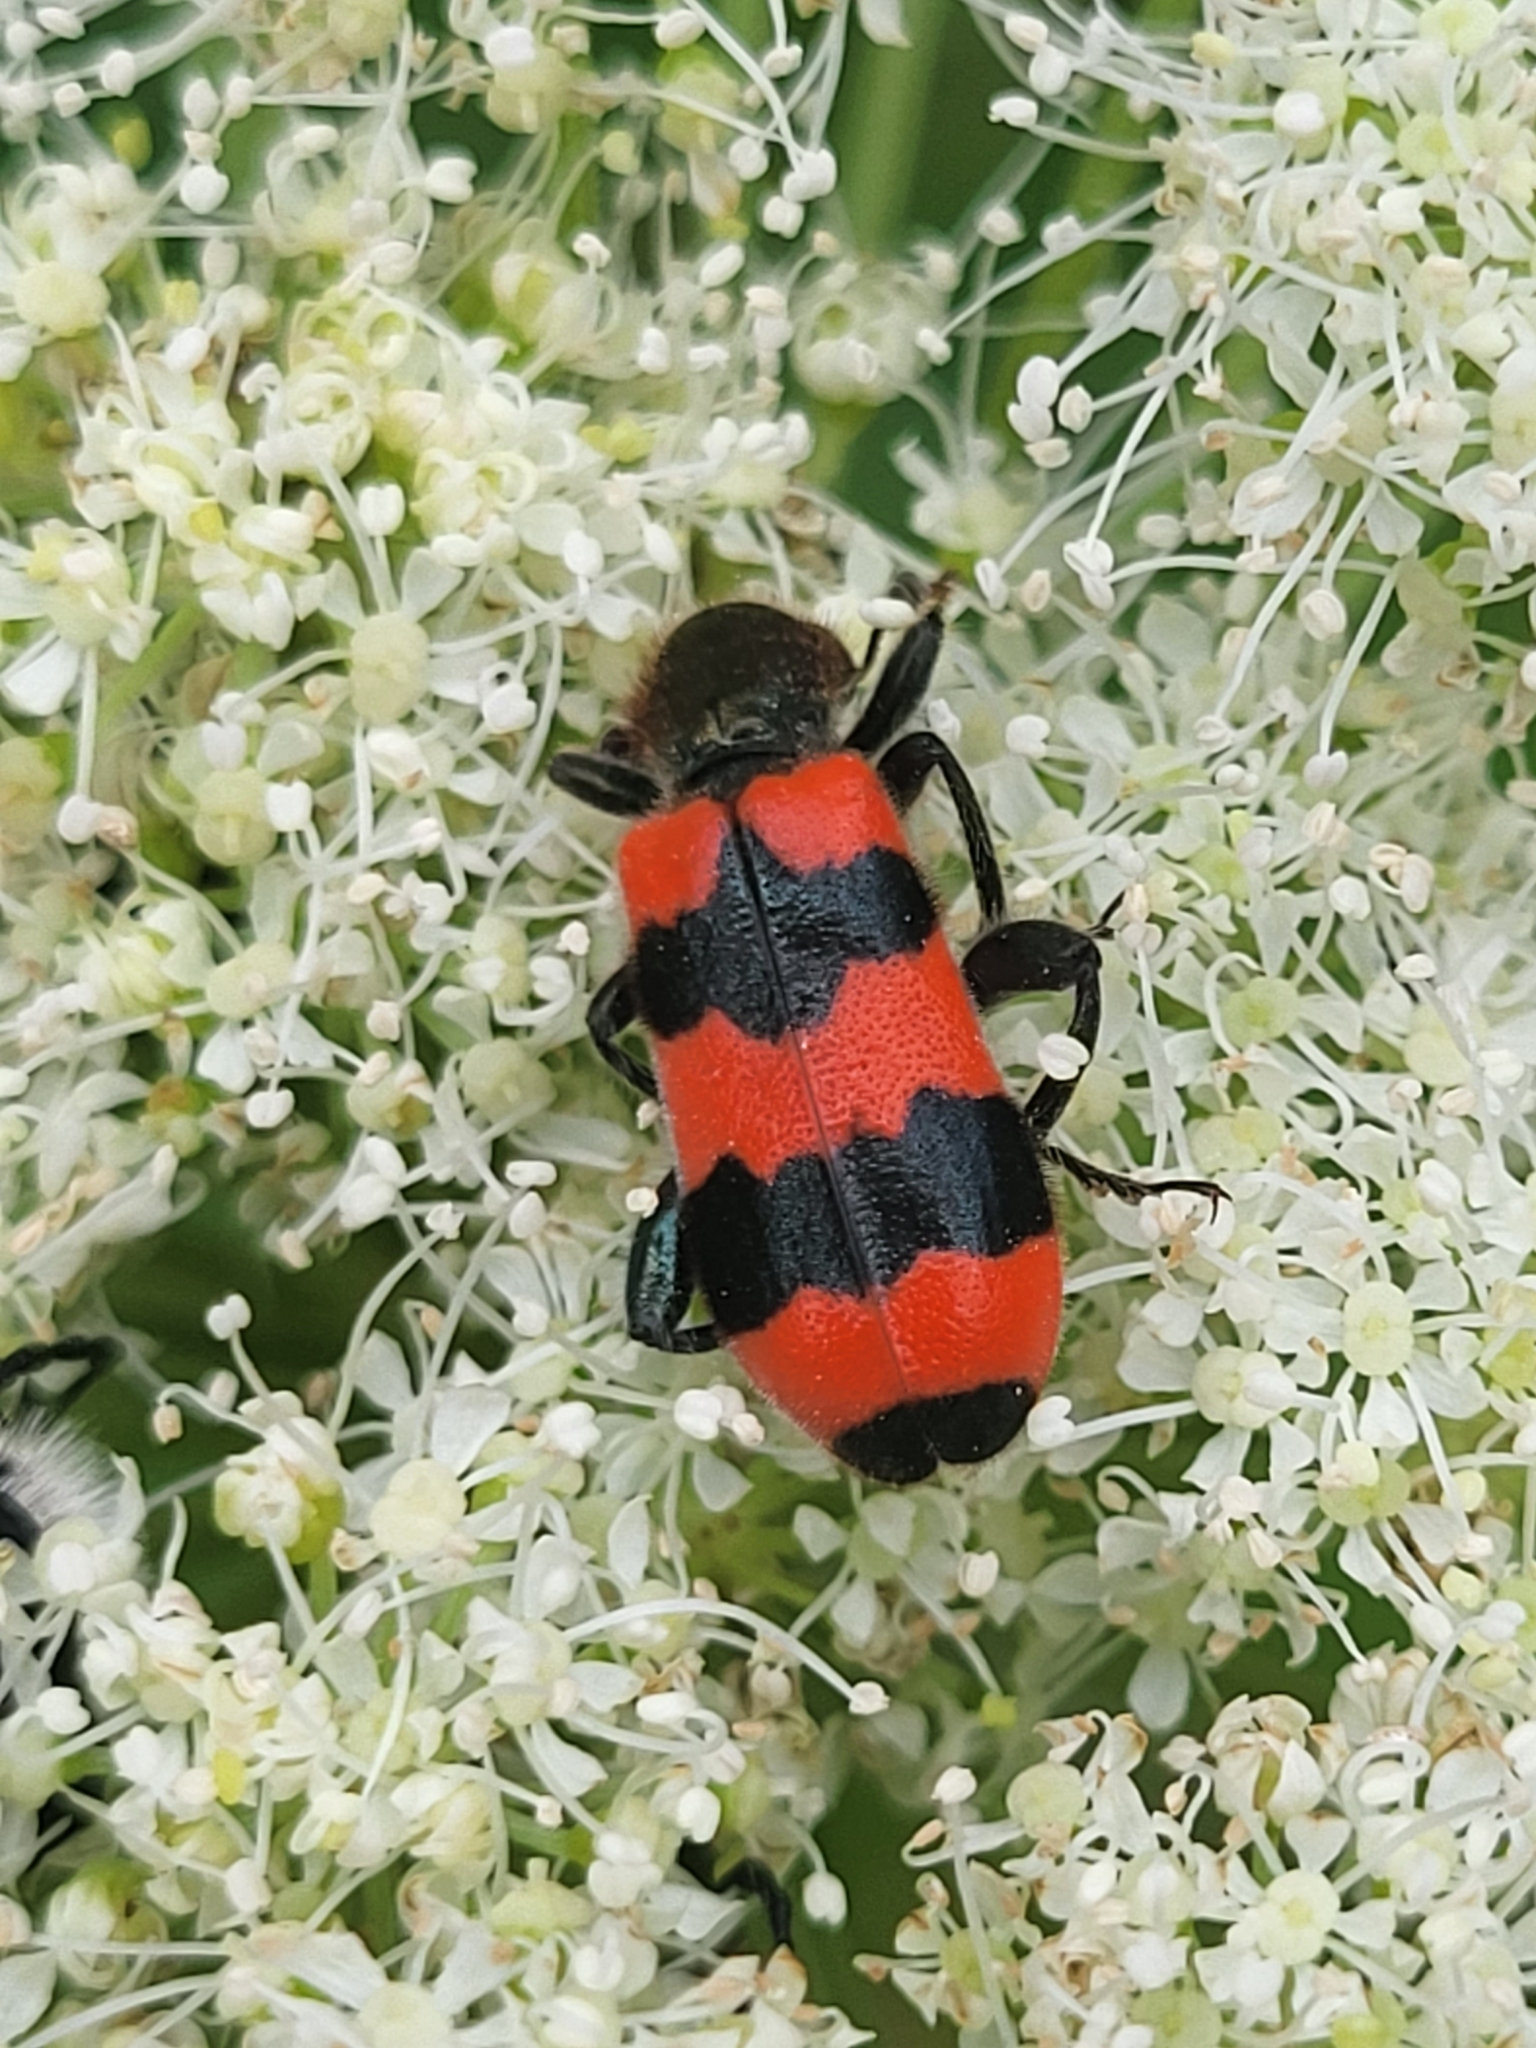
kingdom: Animalia
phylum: Arthropoda
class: Insecta
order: Coleoptera
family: Cleridae
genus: Trichodes
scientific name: Trichodes apiarius
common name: Bee-eating beetle
